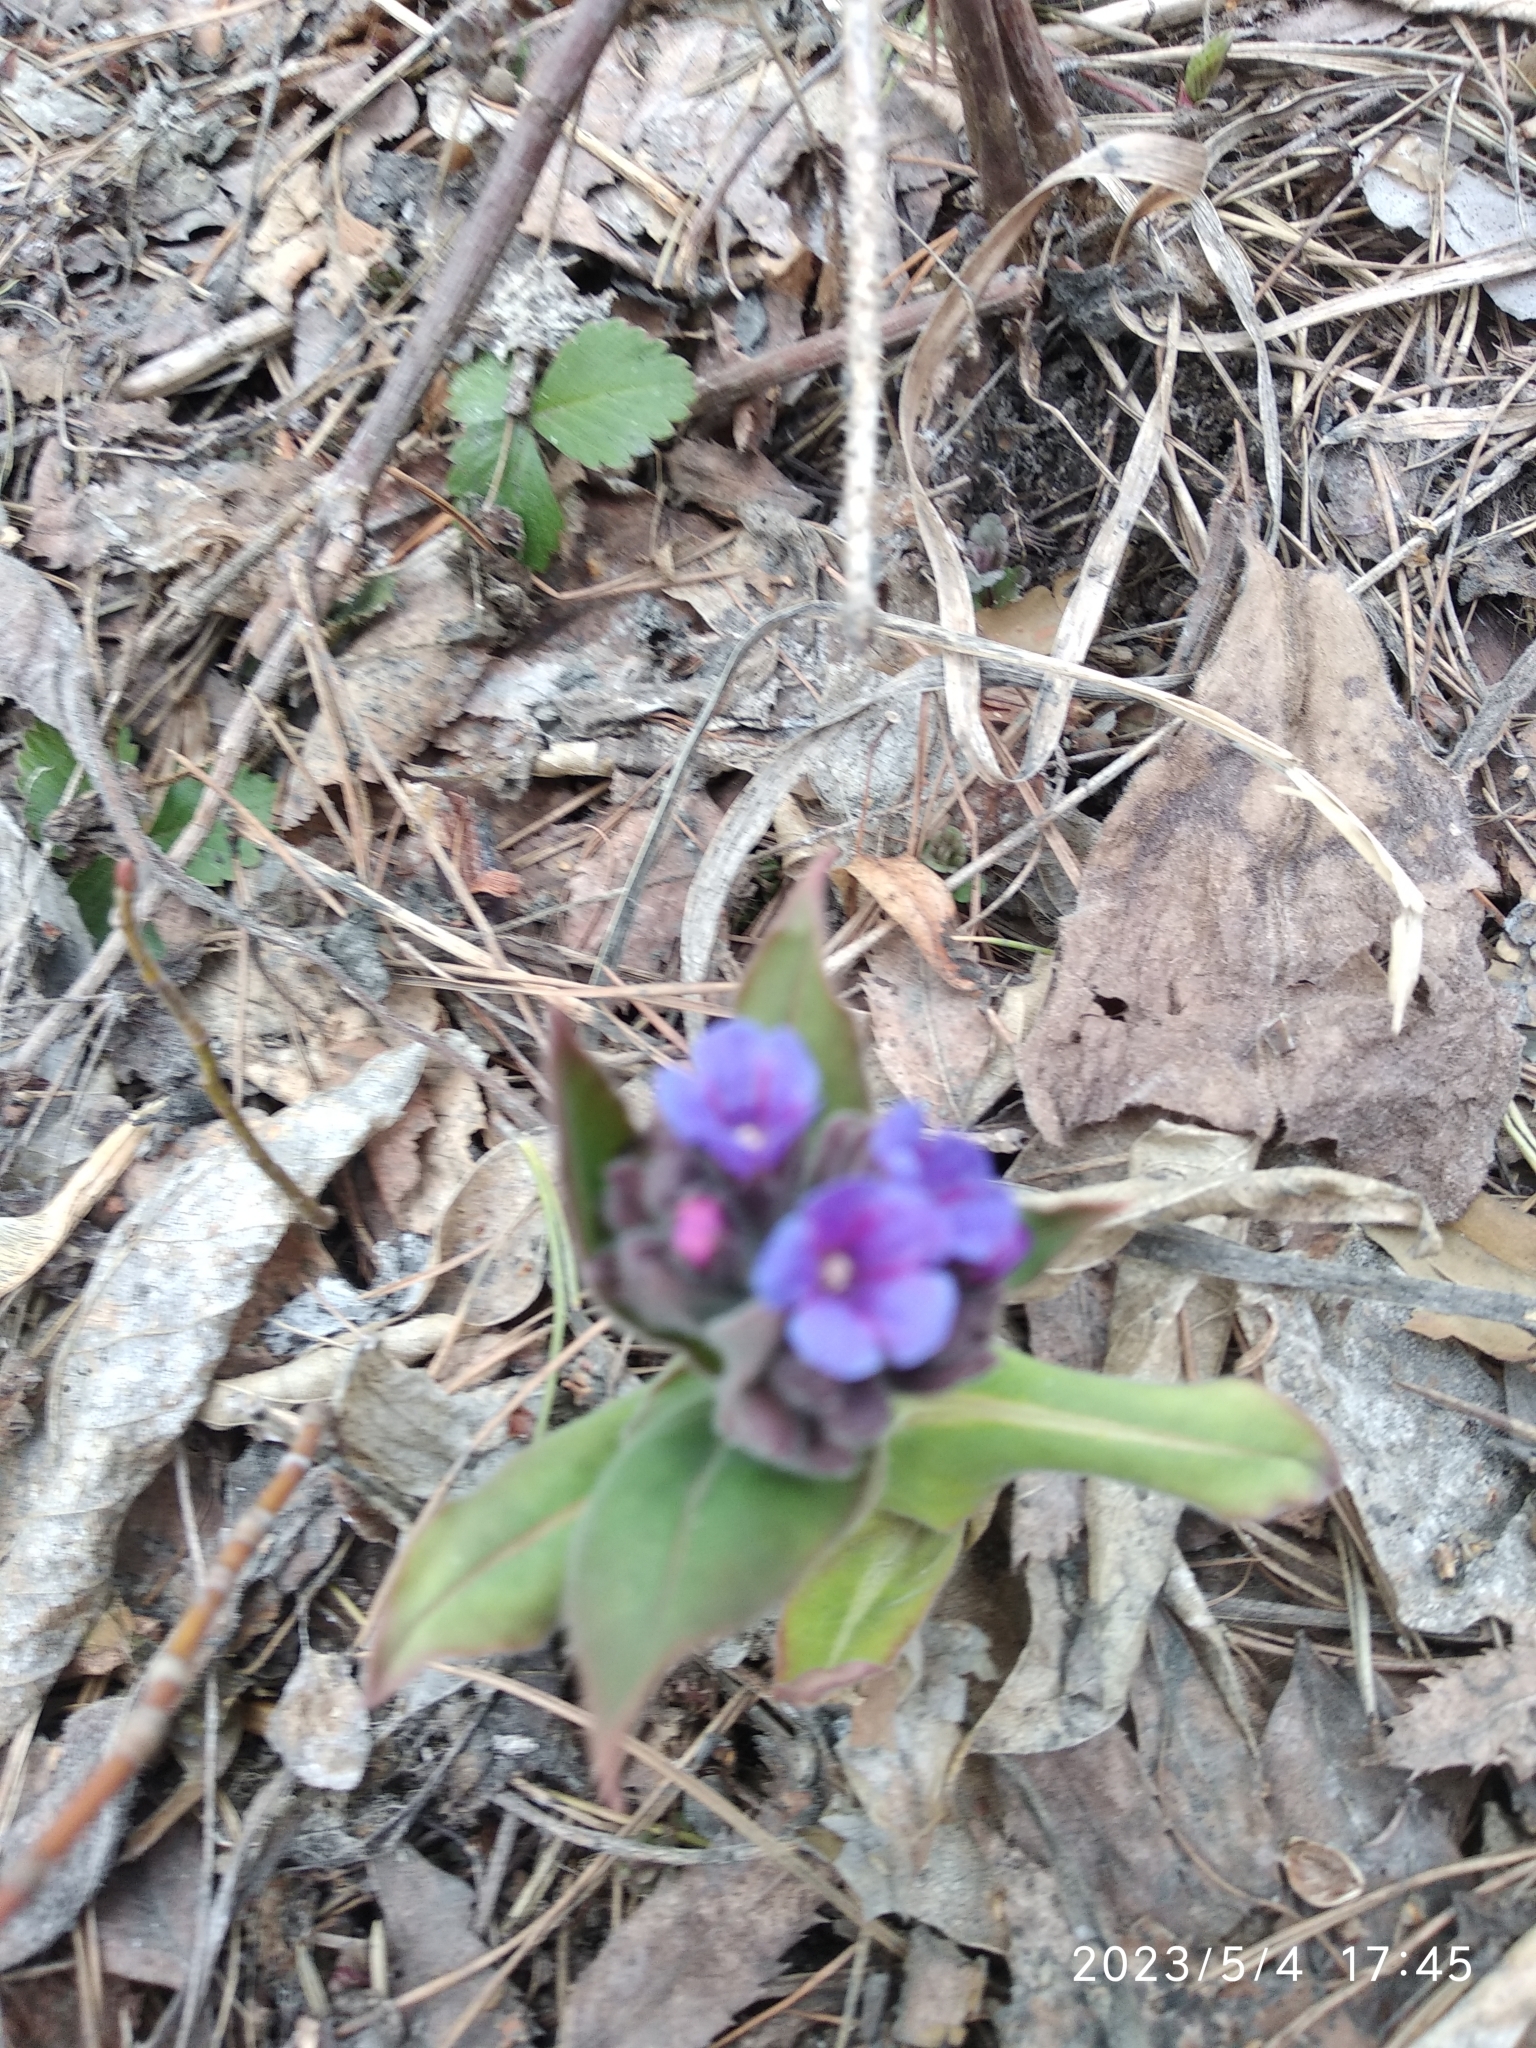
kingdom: Plantae
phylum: Tracheophyta
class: Magnoliopsida
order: Boraginales
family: Boraginaceae
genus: Pulmonaria
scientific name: Pulmonaria mollis
